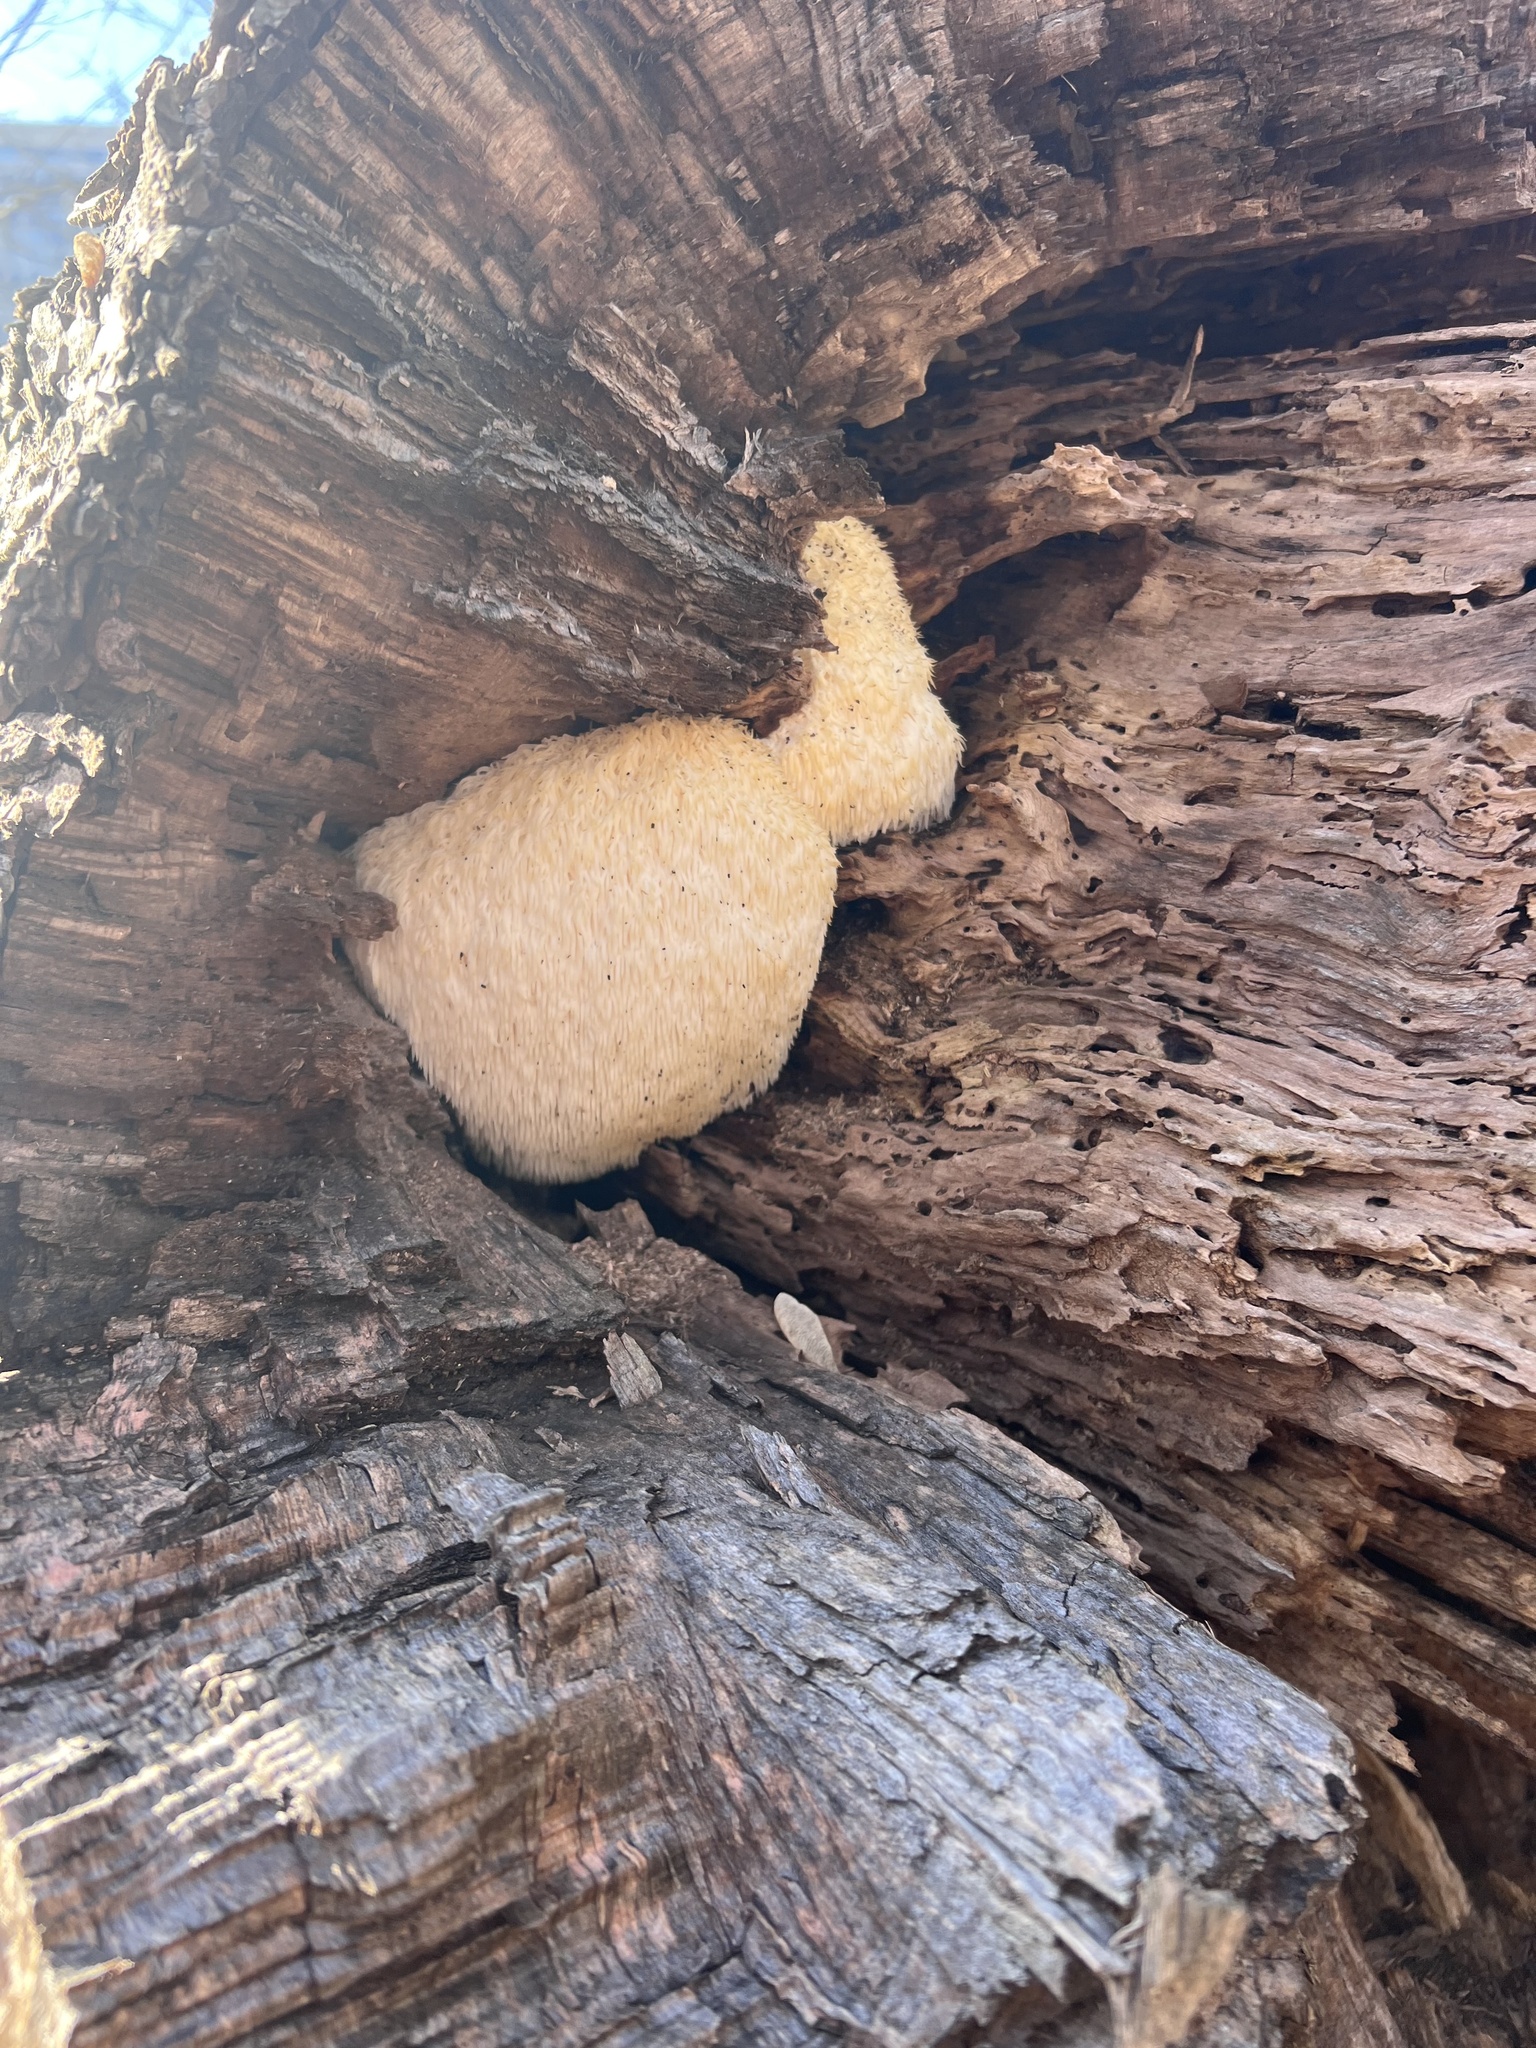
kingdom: Fungi
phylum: Basidiomycota
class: Agaricomycetes
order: Russulales
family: Hericiaceae
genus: Hericium
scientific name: Hericium erinaceus
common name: Bearded tooth
